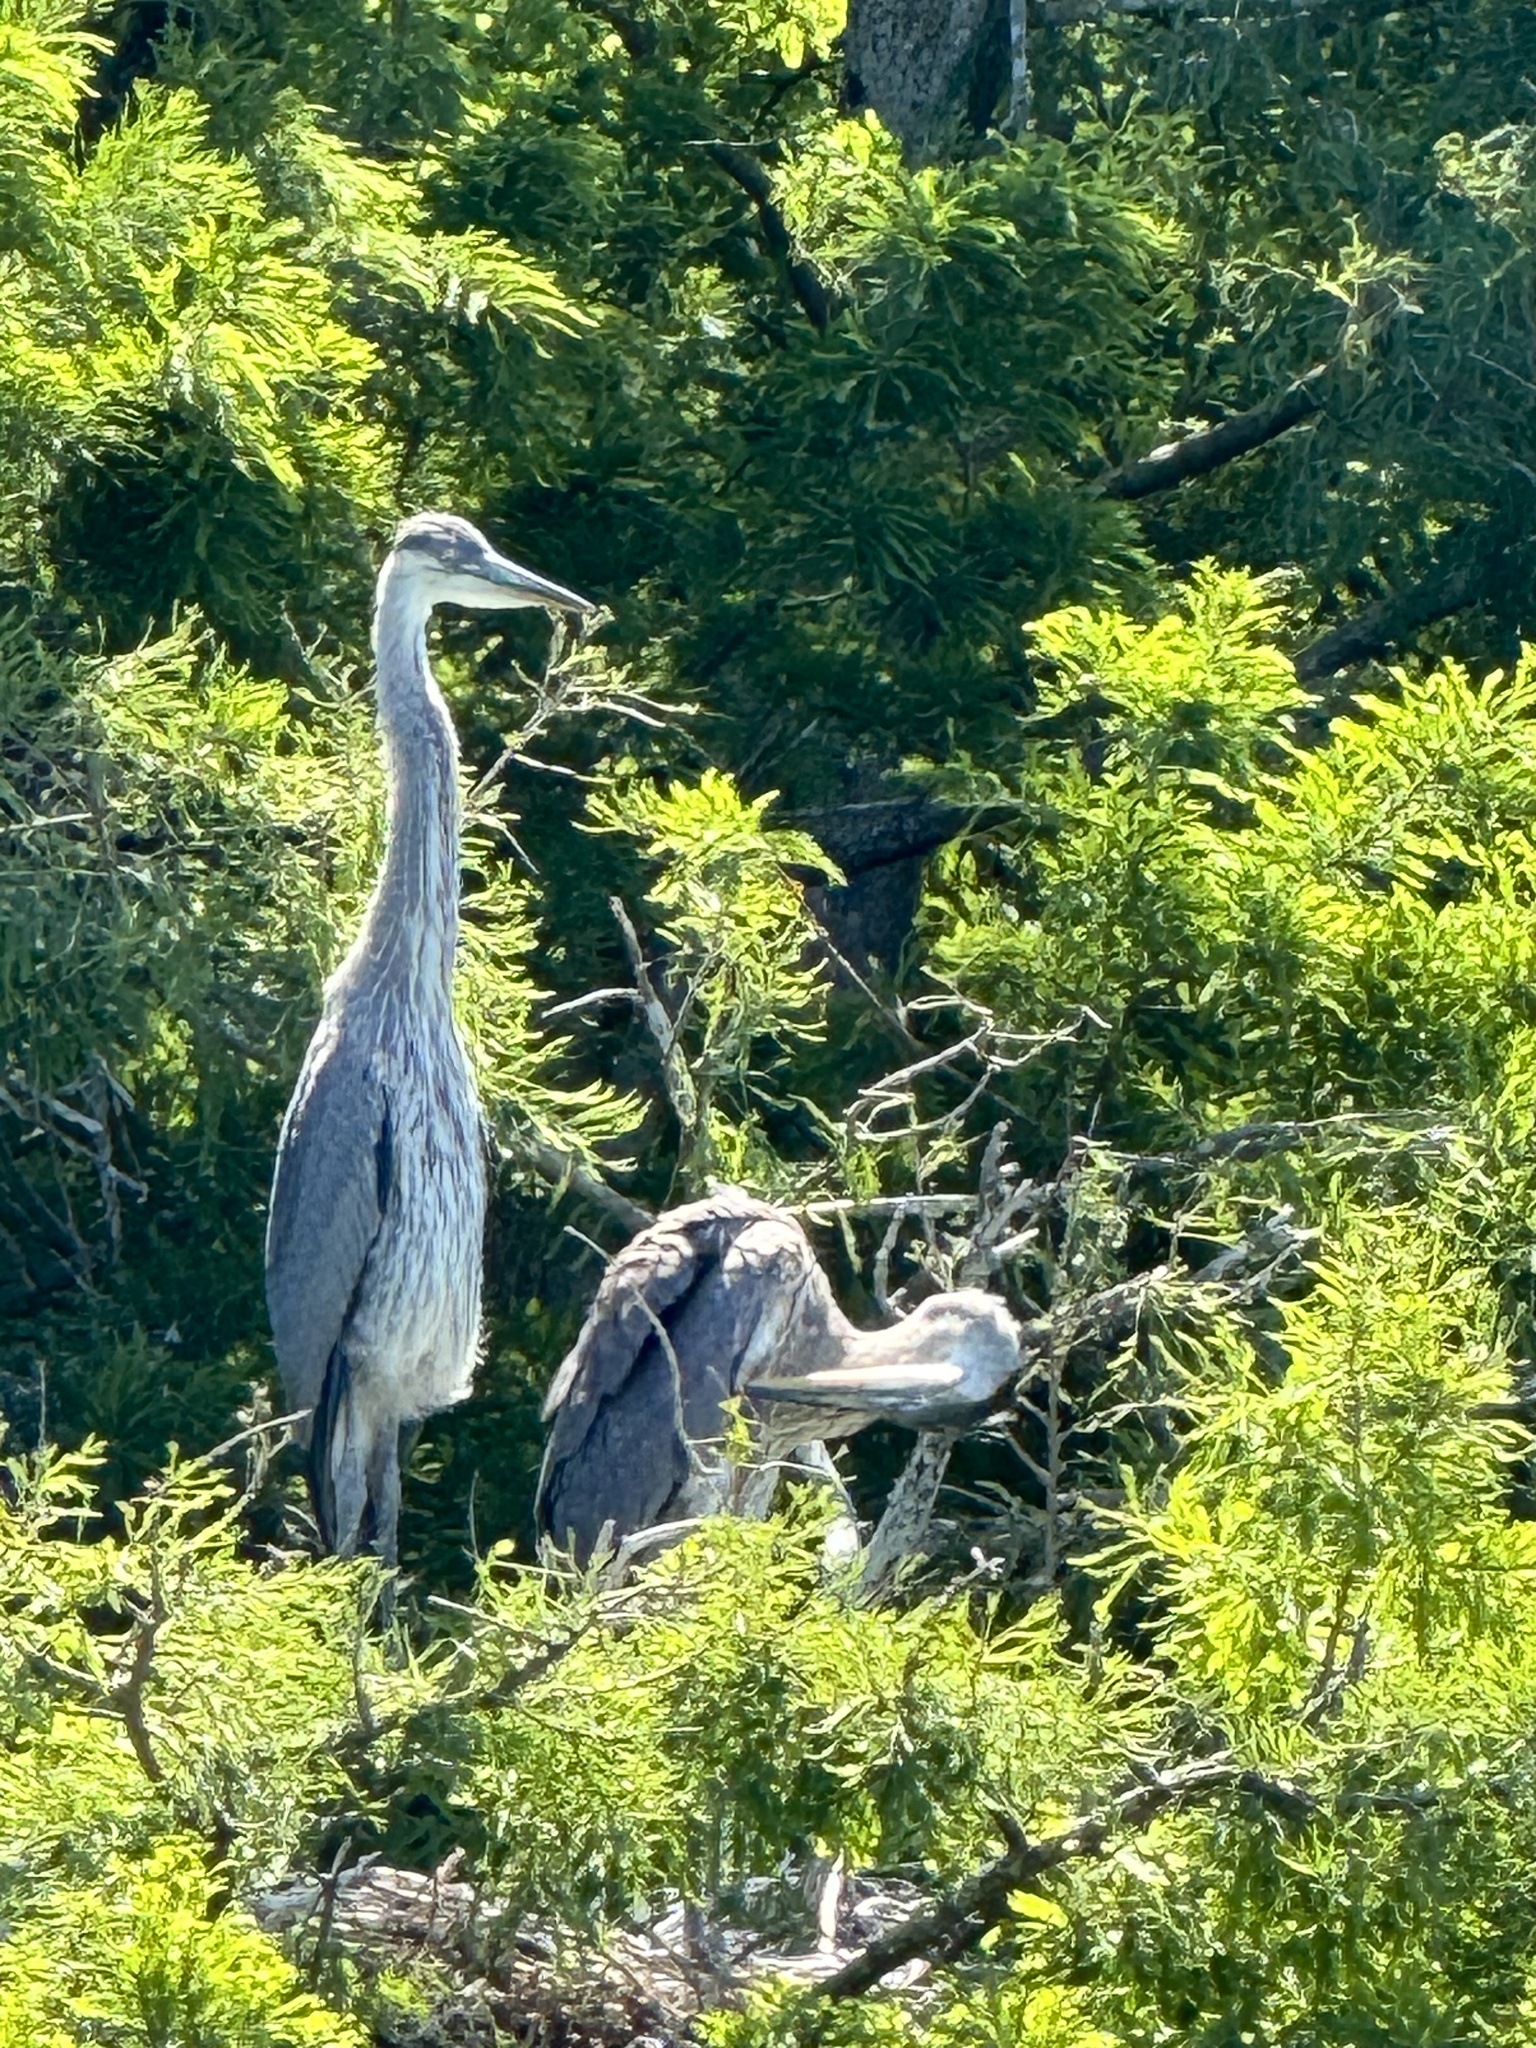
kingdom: Animalia
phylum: Chordata
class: Aves
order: Pelecaniformes
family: Ardeidae
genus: Ardea
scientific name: Ardea herodias
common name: Great blue heron
